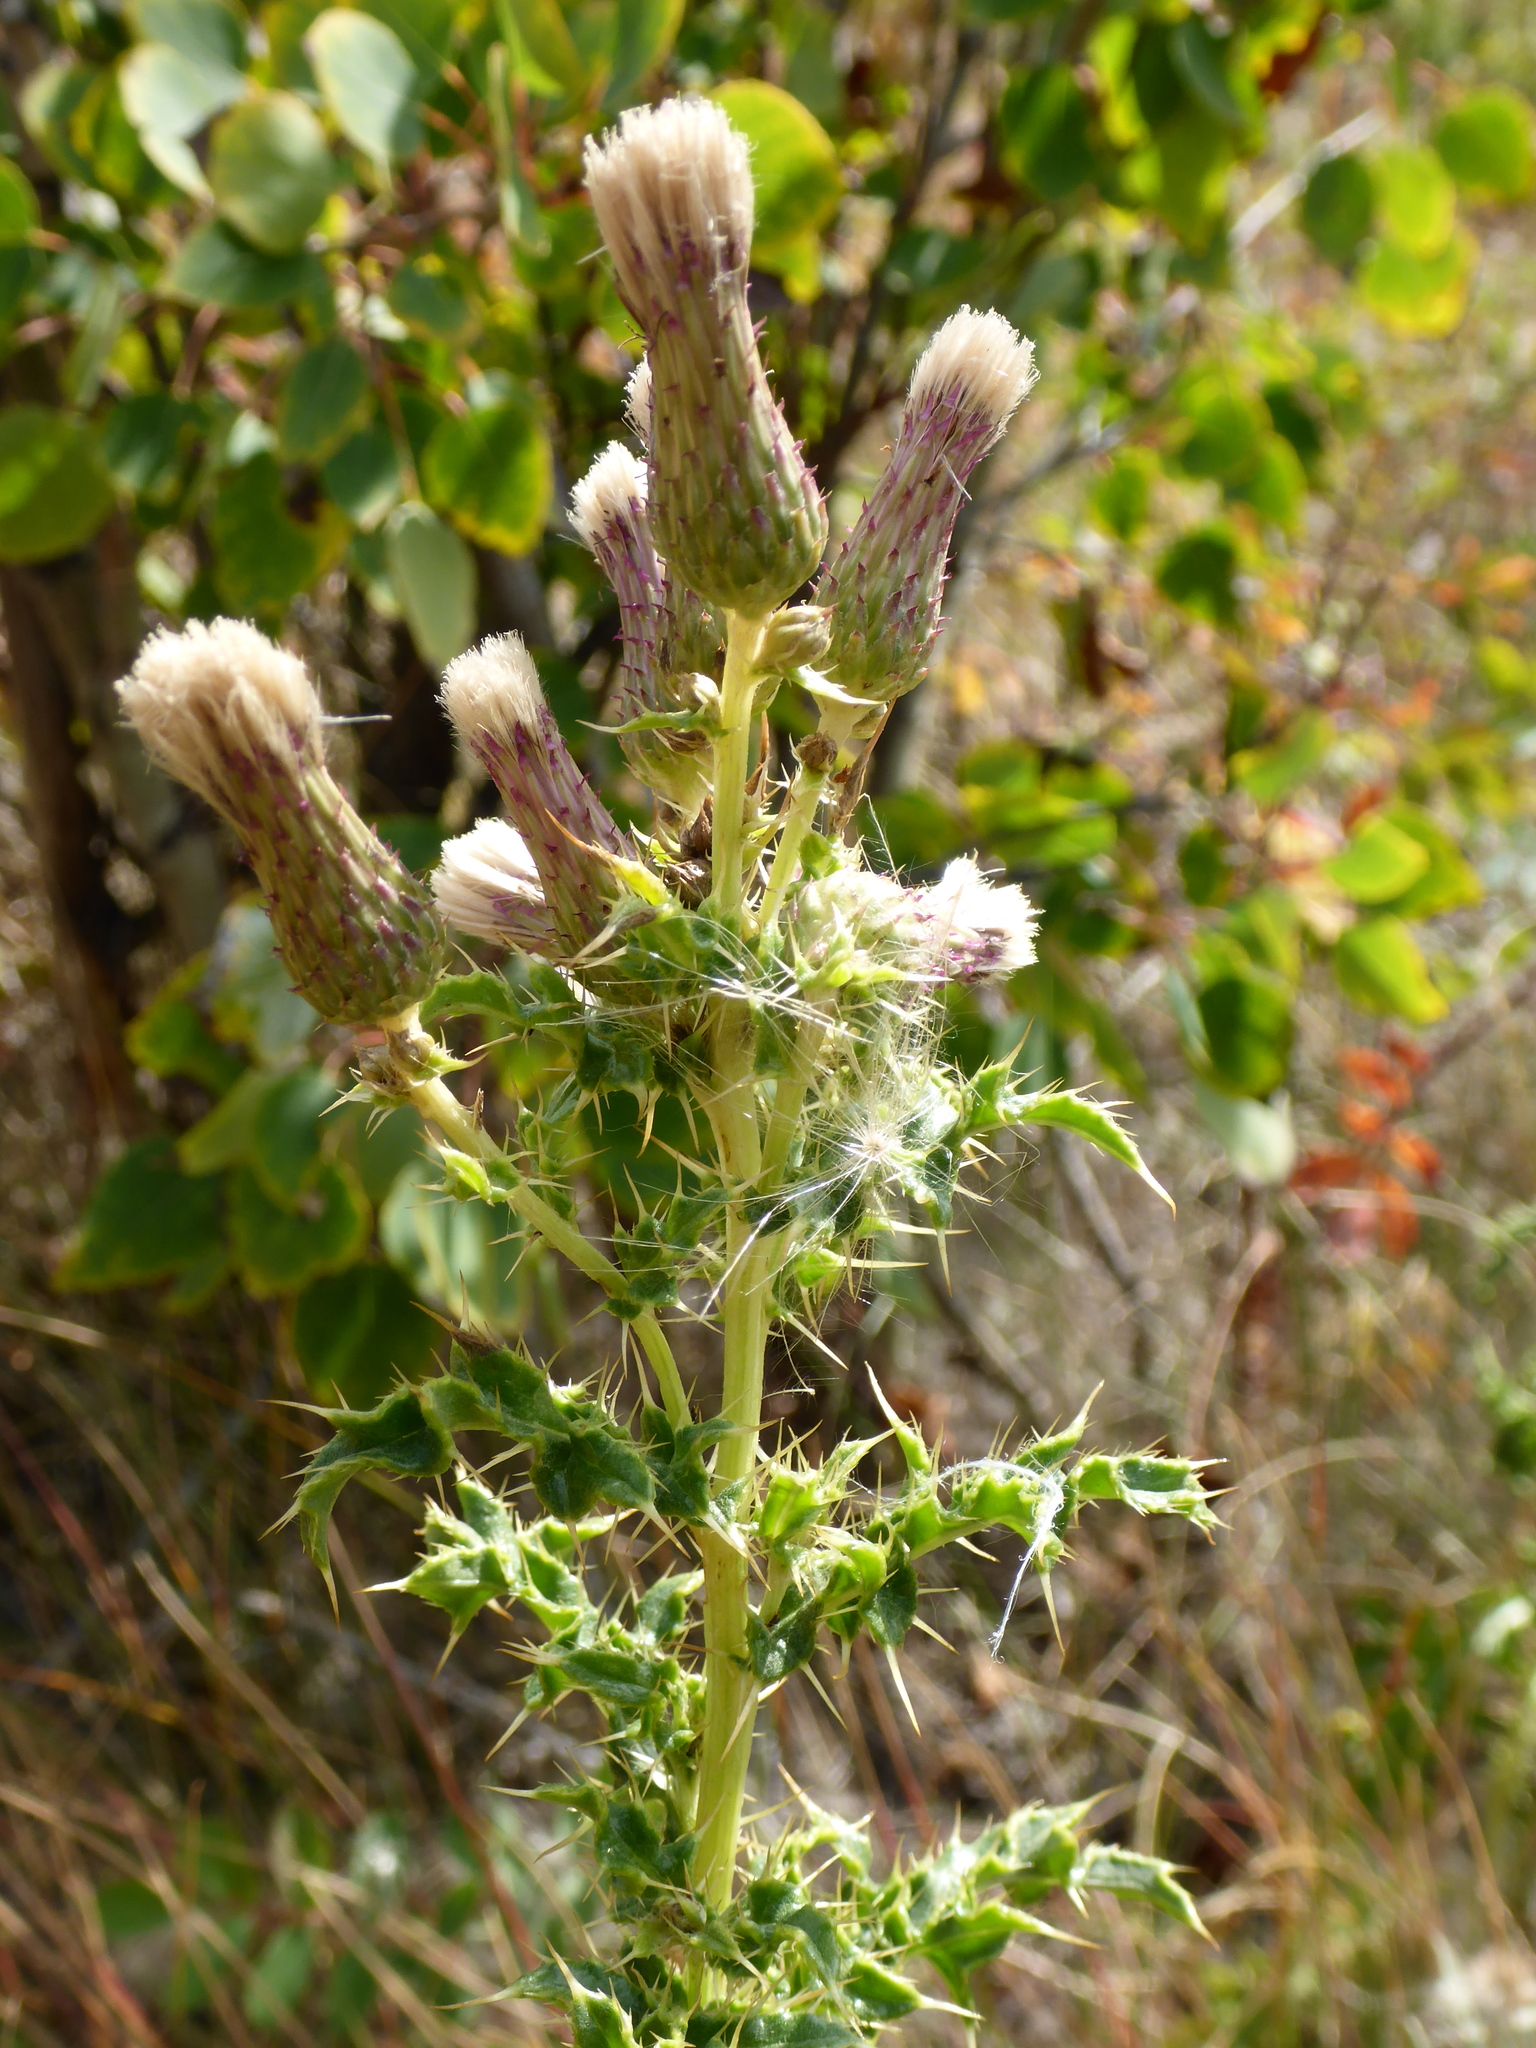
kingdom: Plantae
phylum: Tracheophyta
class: Magnoliopsida
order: Asterales
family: Asteraceae
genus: Cirsium
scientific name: Cirsium arvense
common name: Creeping thistle
